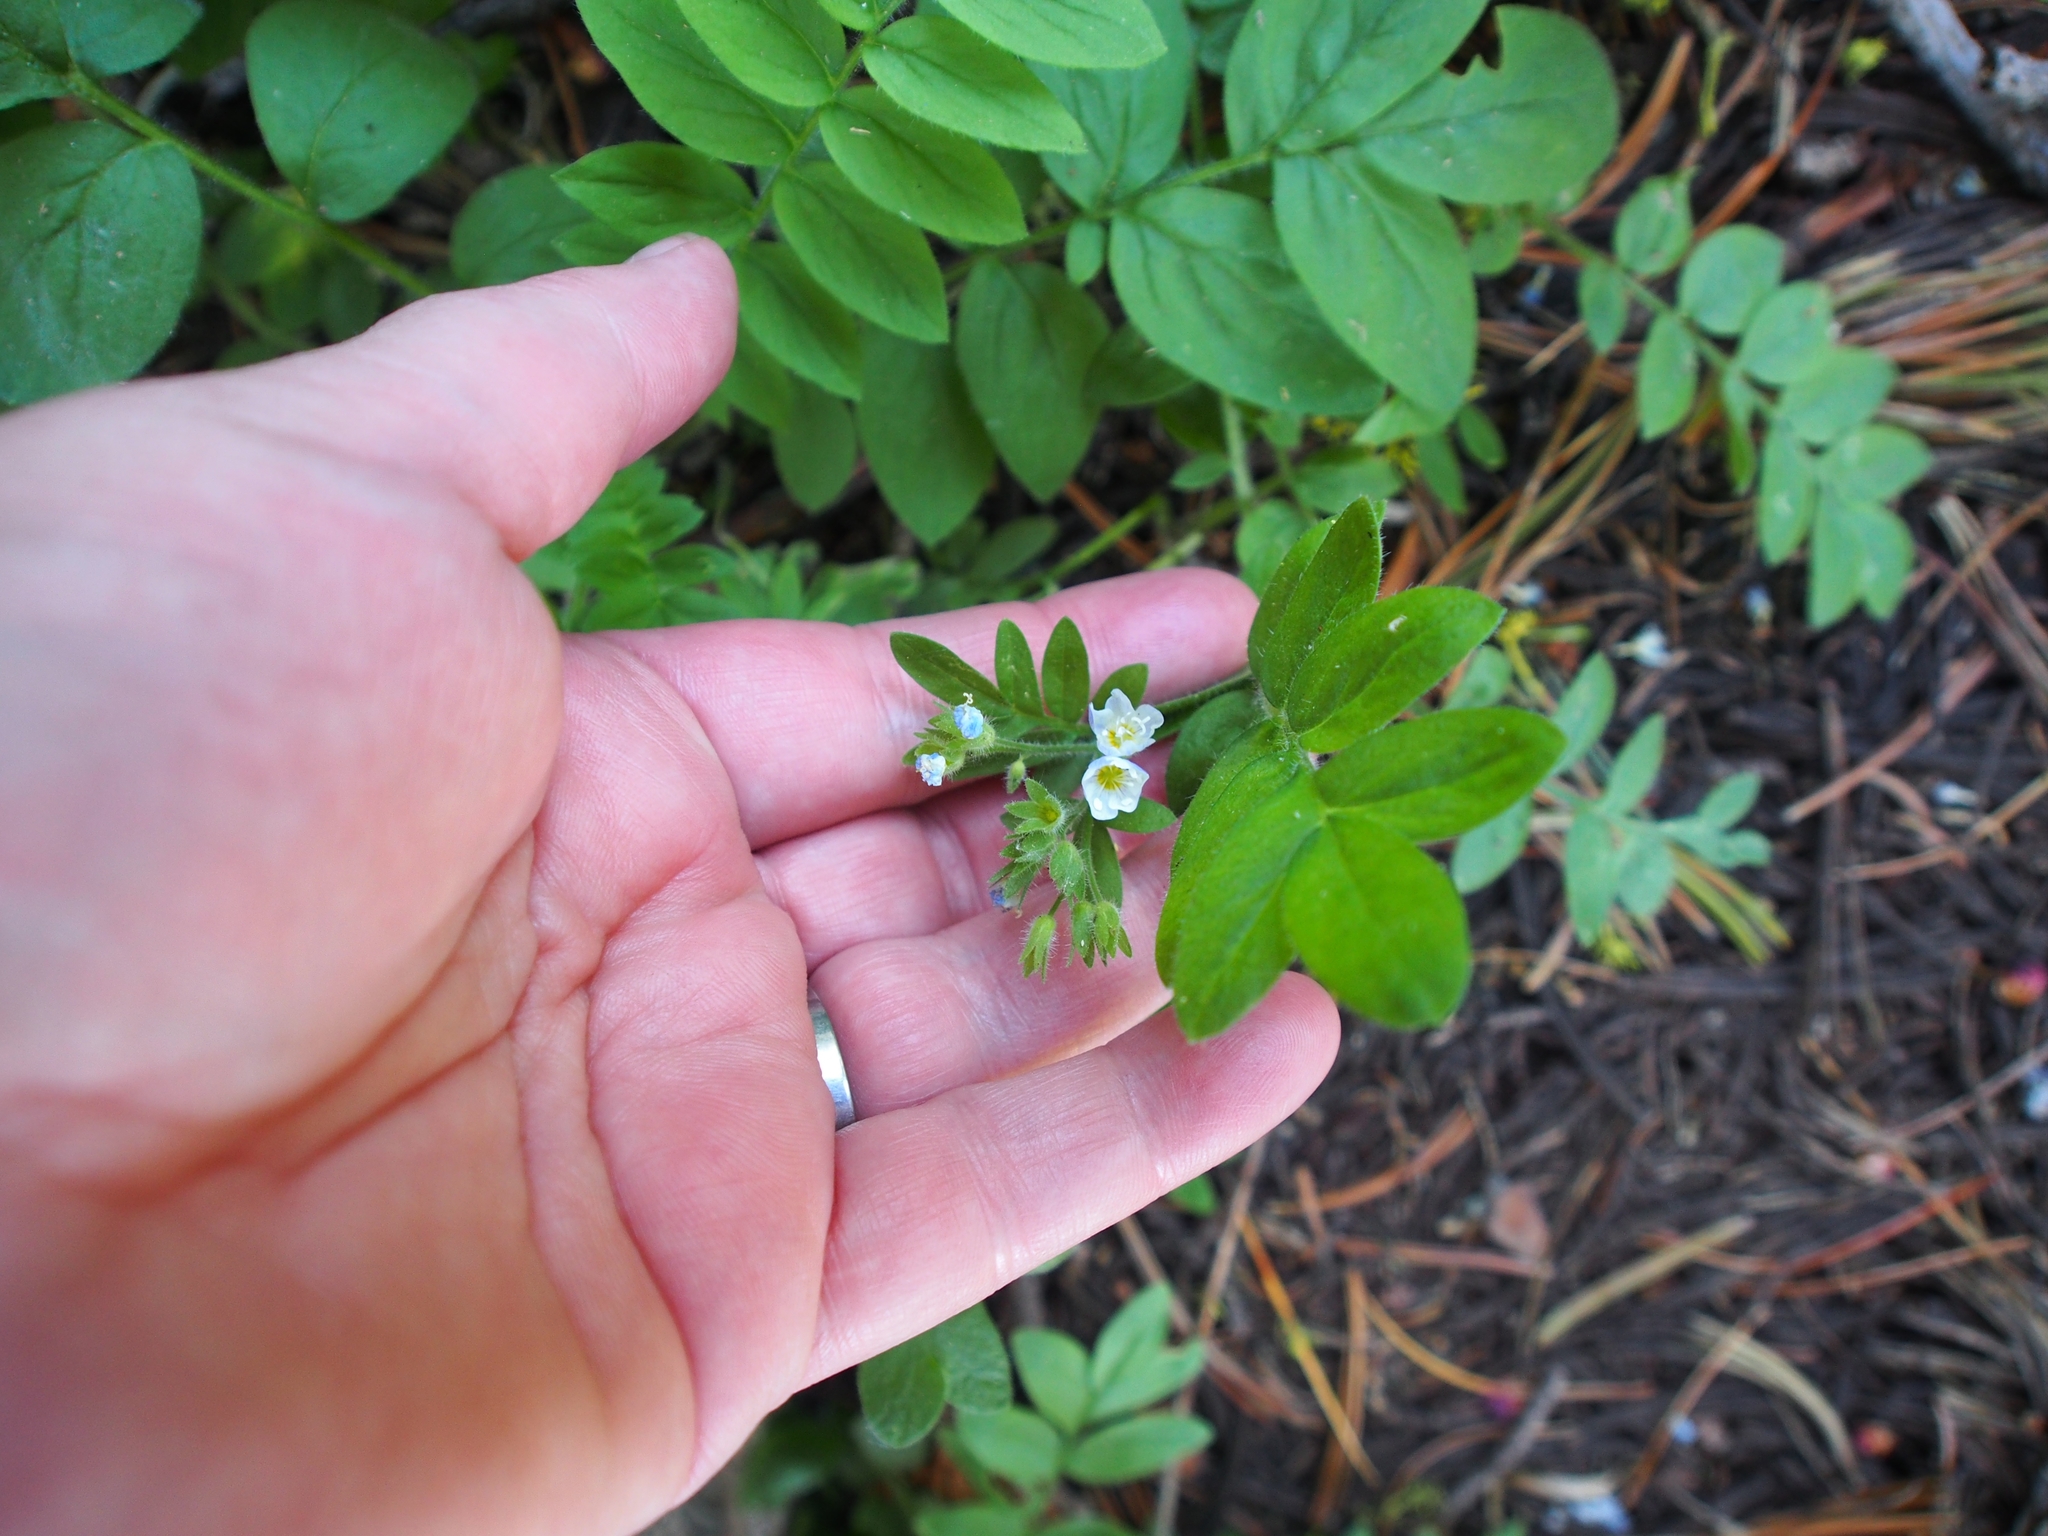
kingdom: Plantae
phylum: Tracheophyta
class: Magnoliopsida
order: Ericales
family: Polemoniaceae
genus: Polemonium
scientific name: Polemonium californicum
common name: California jacob's ladder
